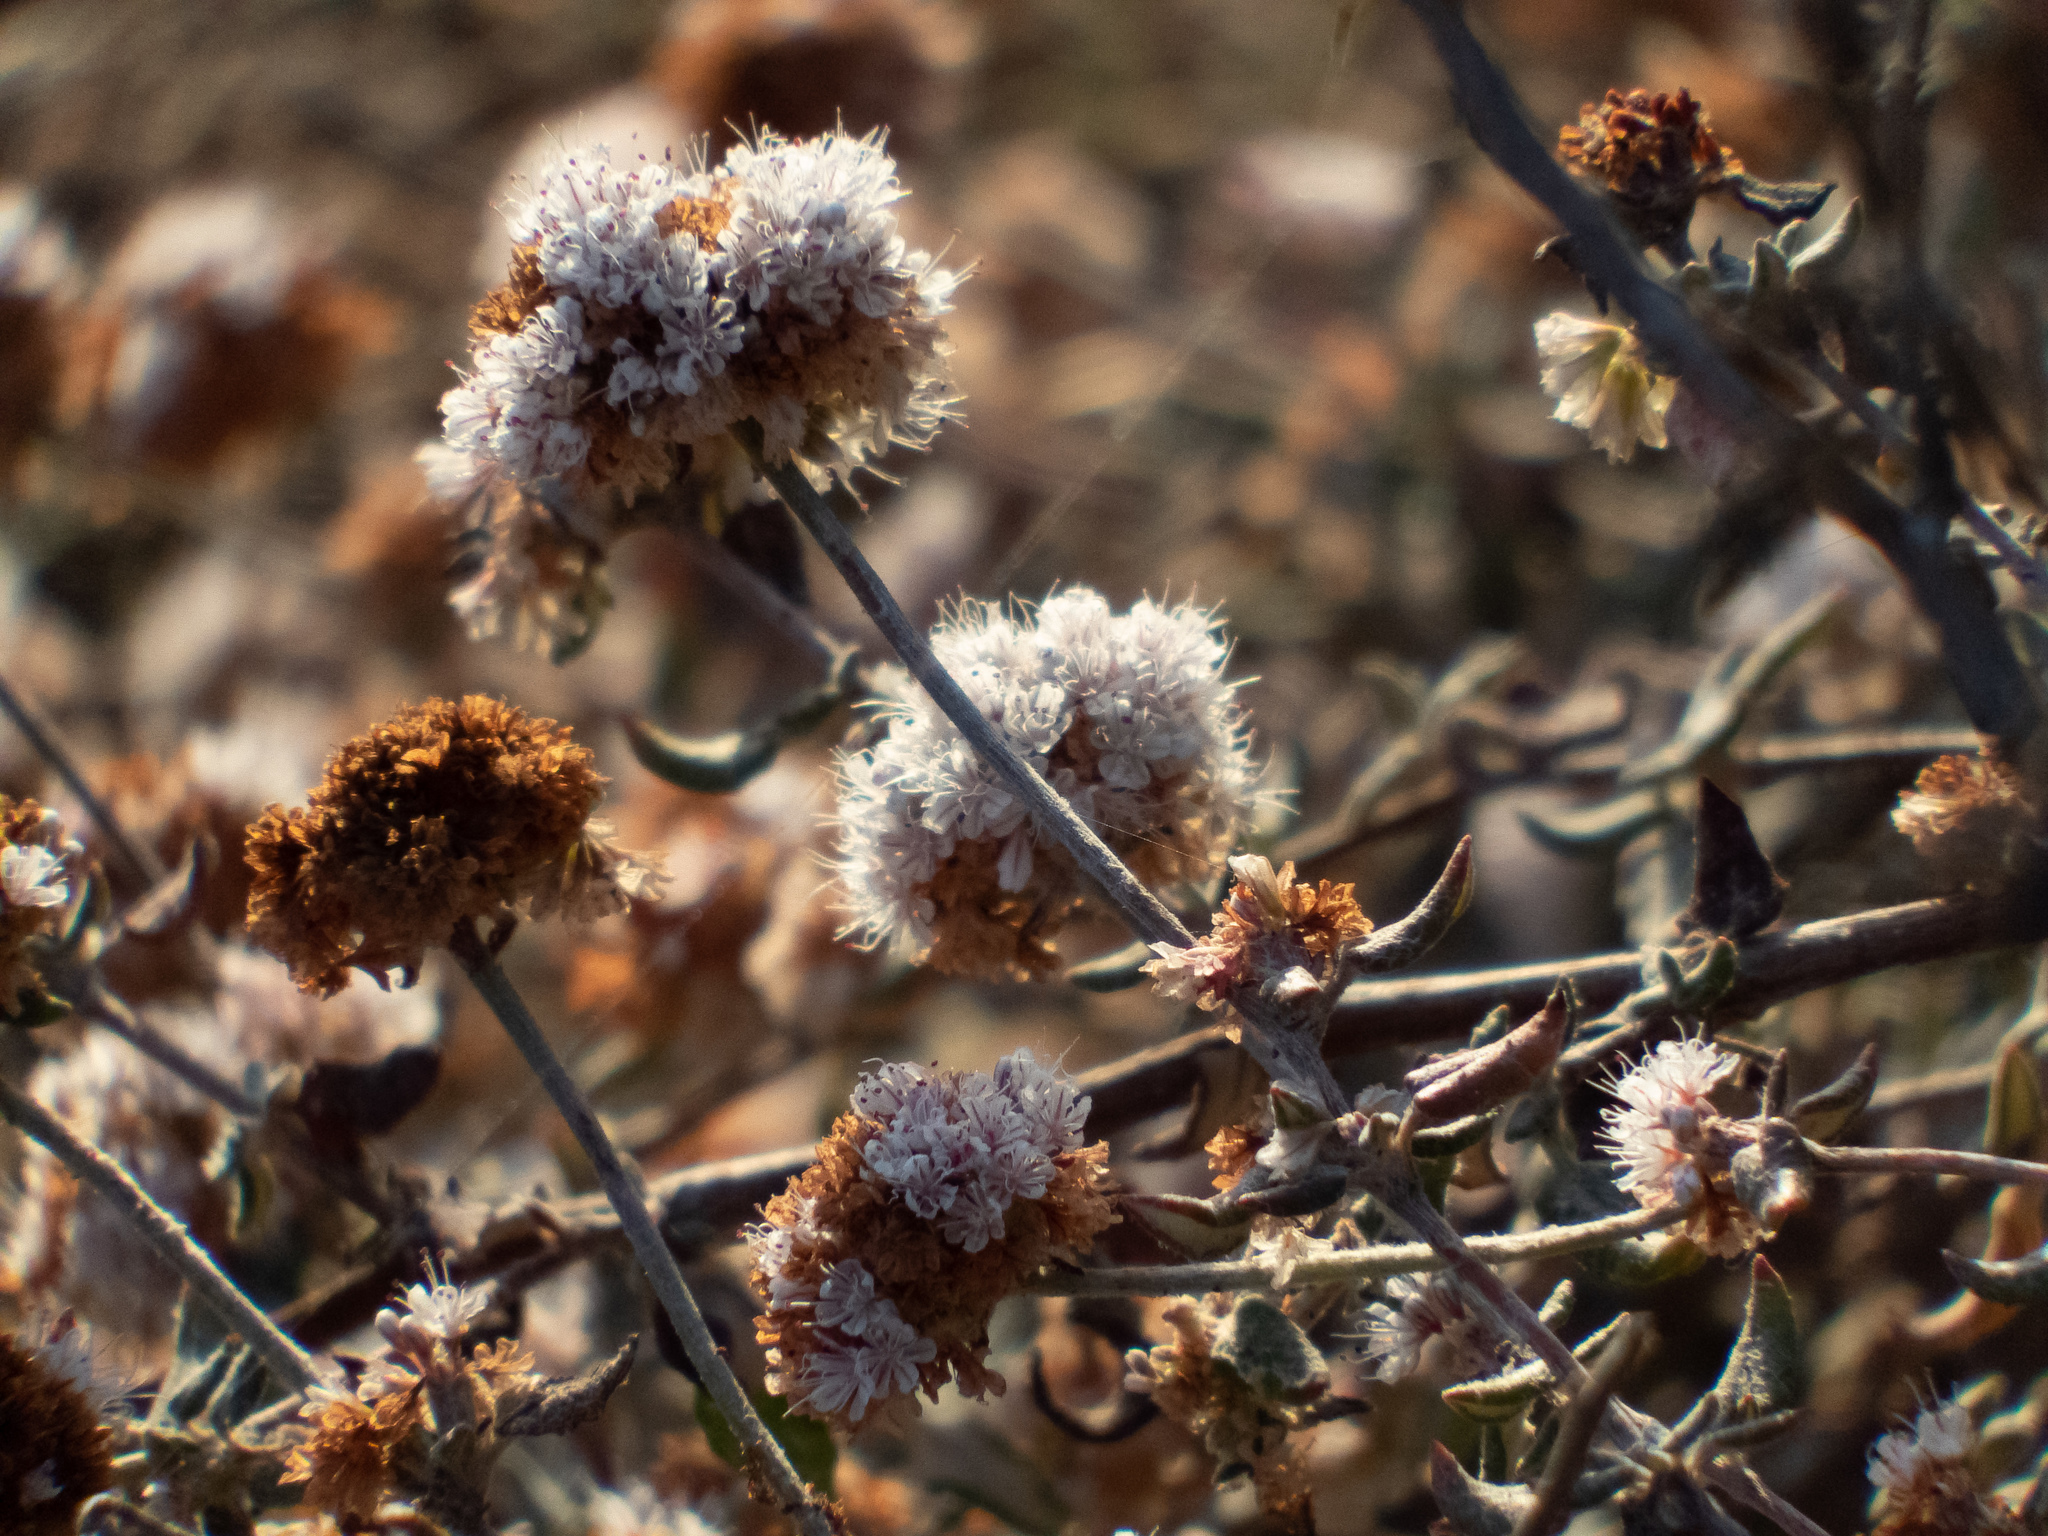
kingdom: Plantae
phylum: Tracheophyta
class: Magnoliopsida
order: Caryophyllales
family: Polygonaceae
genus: Eriogonum
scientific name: Eriogonum parvifolium
